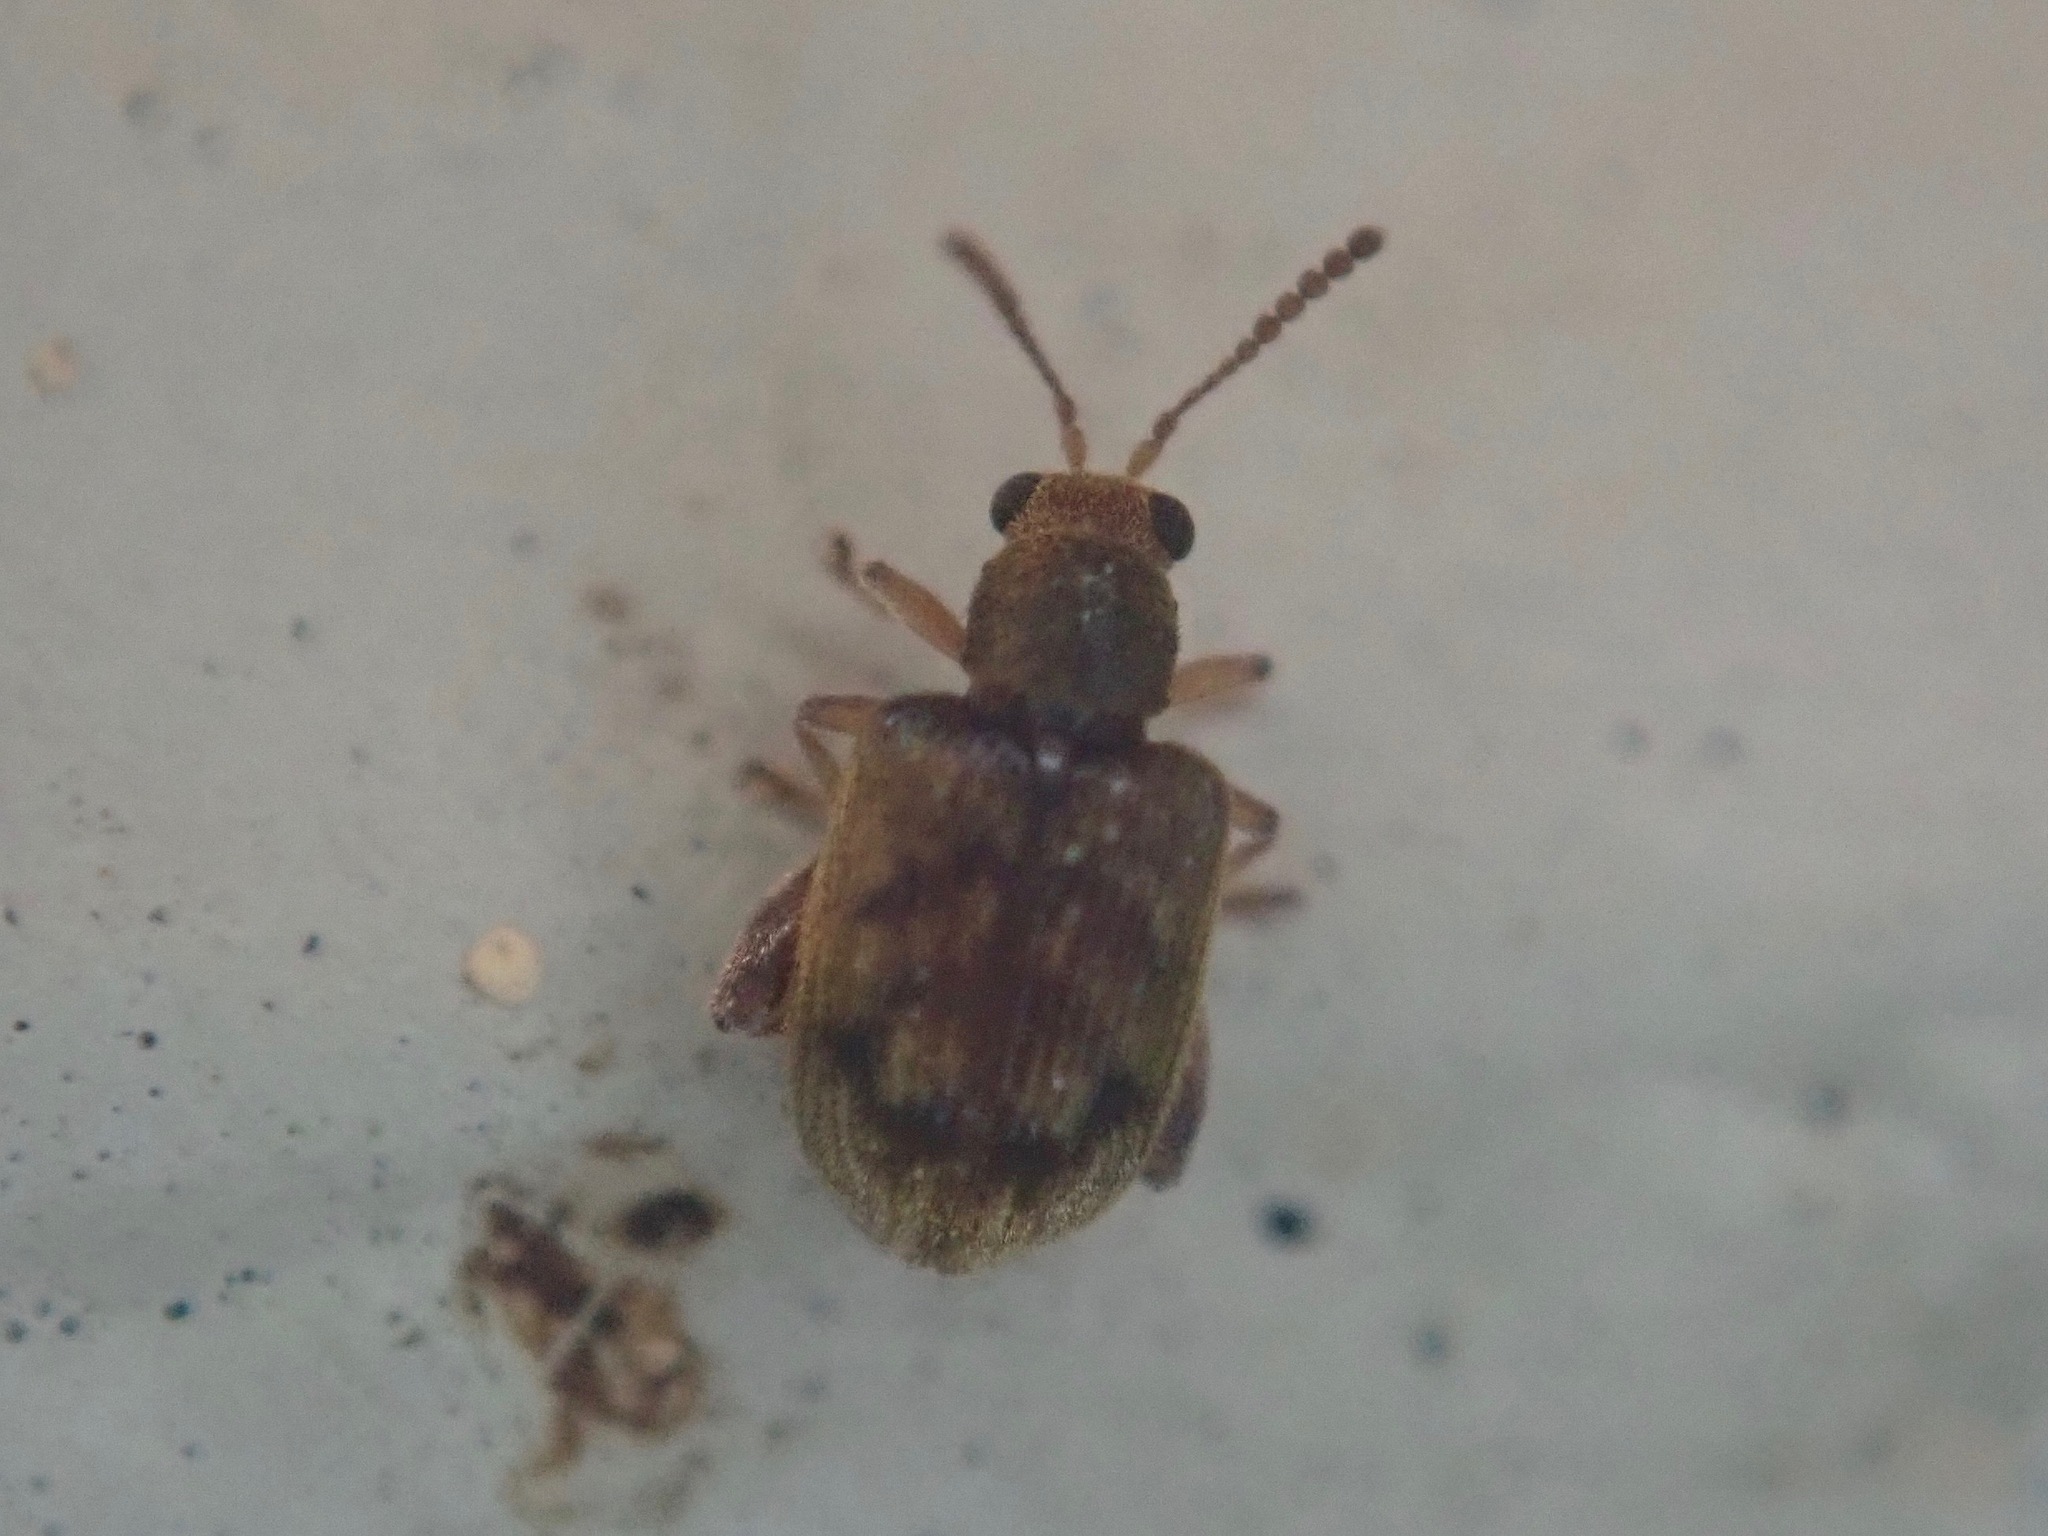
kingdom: Animalia
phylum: Arthropoda
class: Insecta
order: Coleoptera
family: Chrysomelidae
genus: Pseudolampis
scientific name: Pseudolampis guttata
